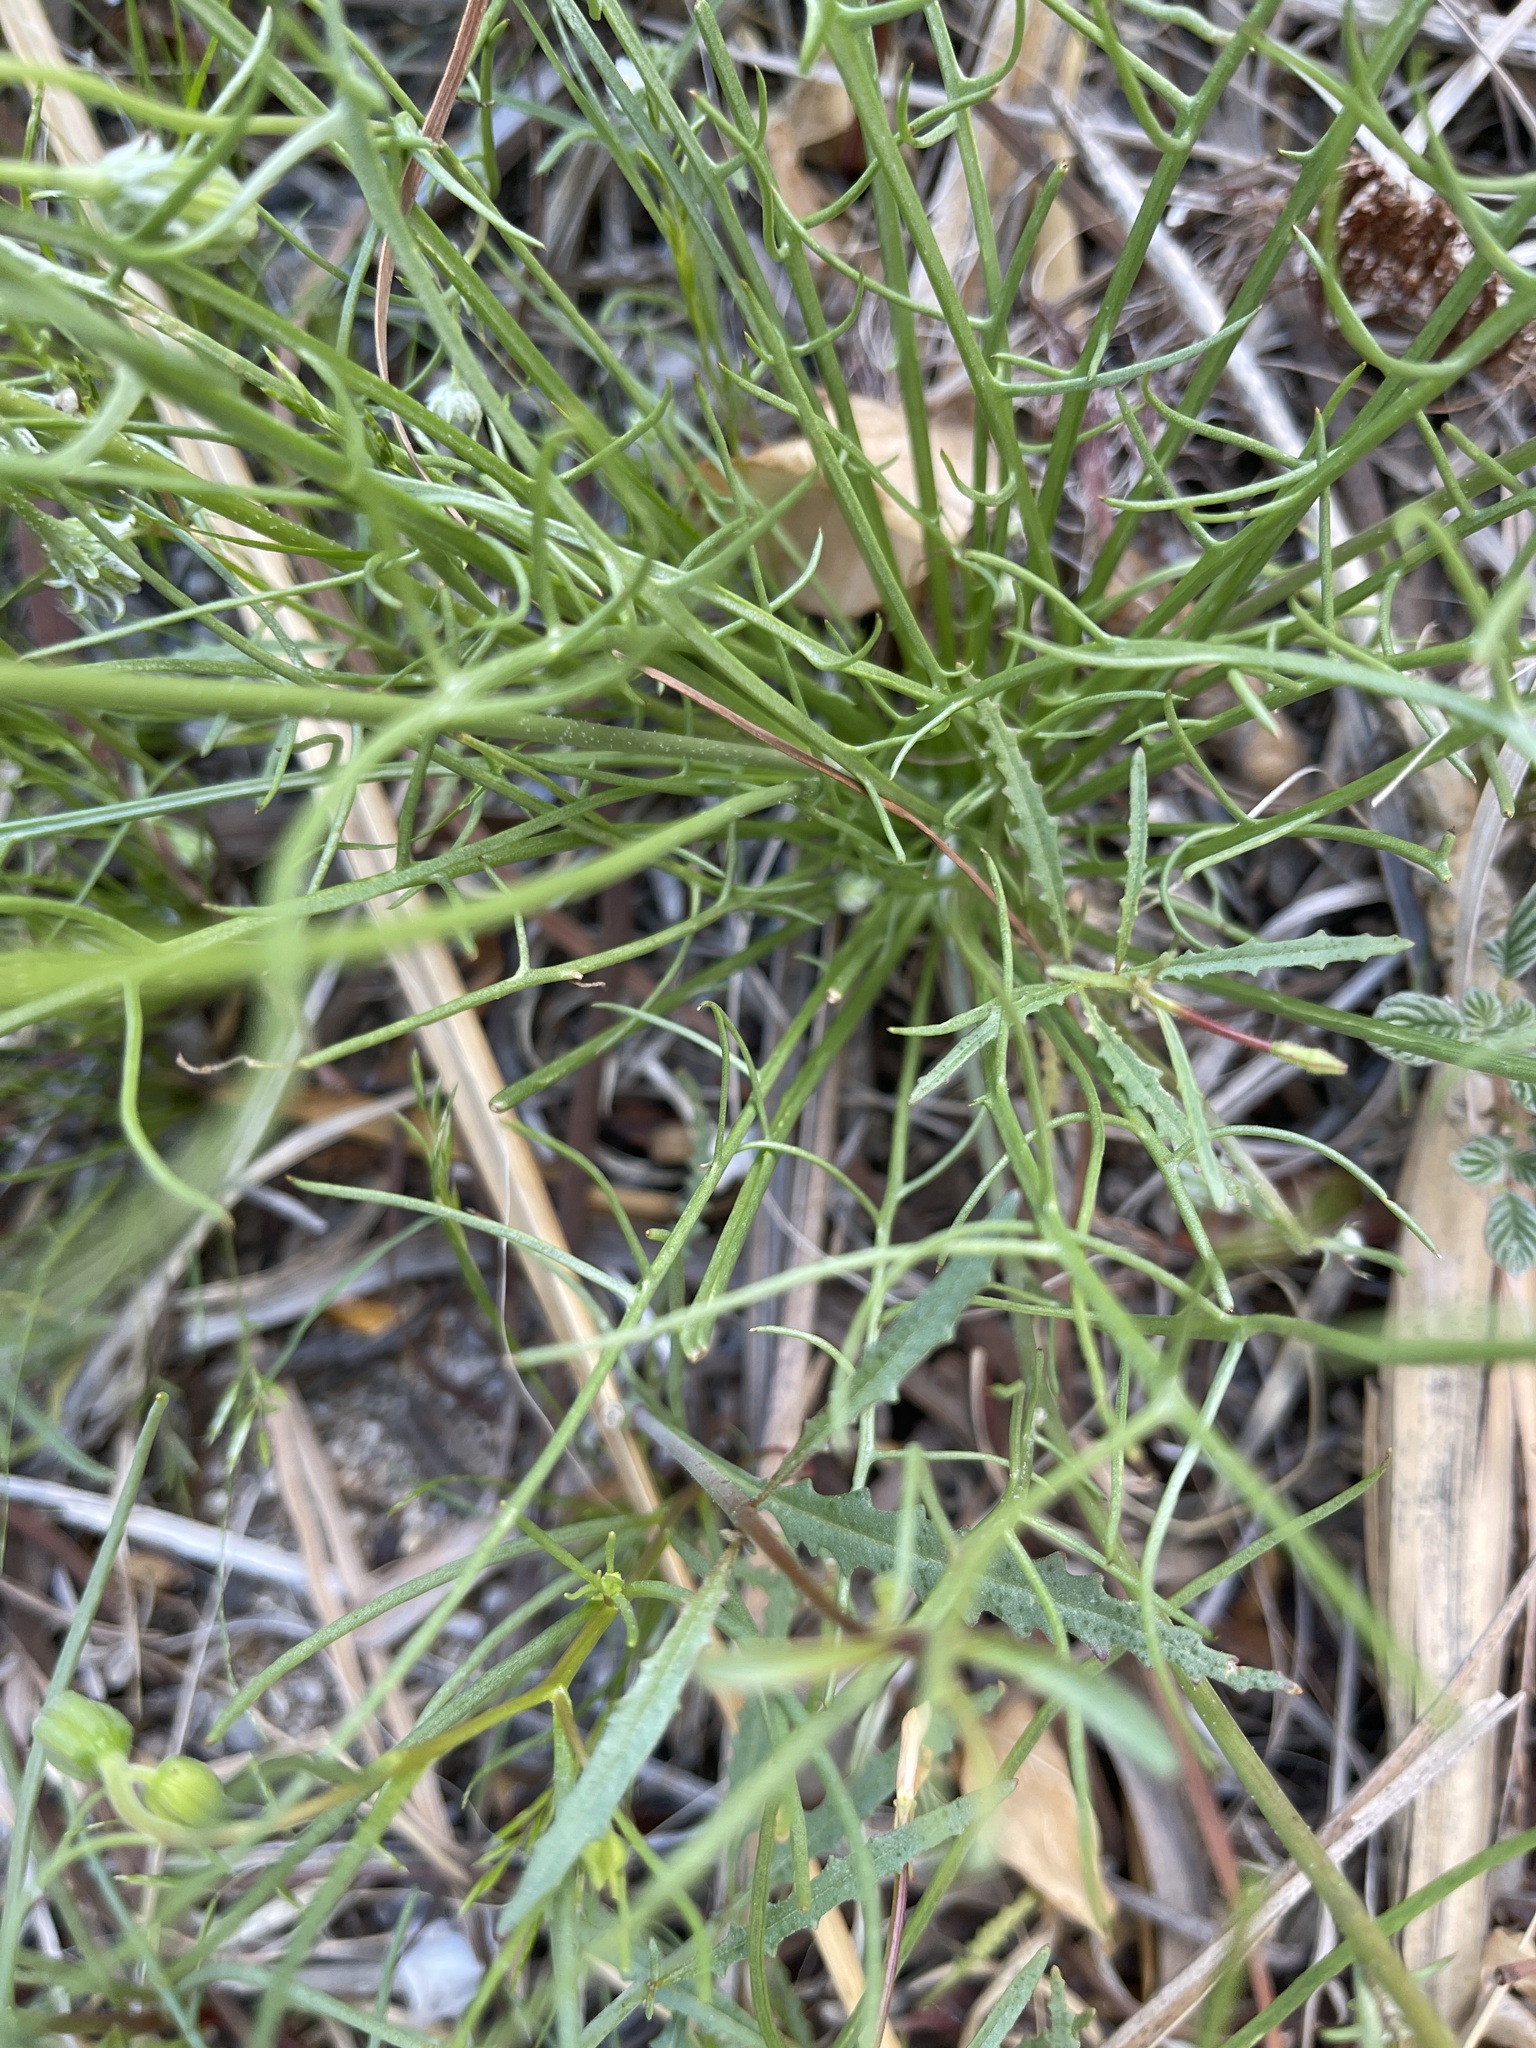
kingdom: Plantae
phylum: Tracheophyta
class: Magnoliopsida
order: Asterales
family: Asteraceae
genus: Malacothrix
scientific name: Malacothrix glabrata
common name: Smooth desert-dandelion
